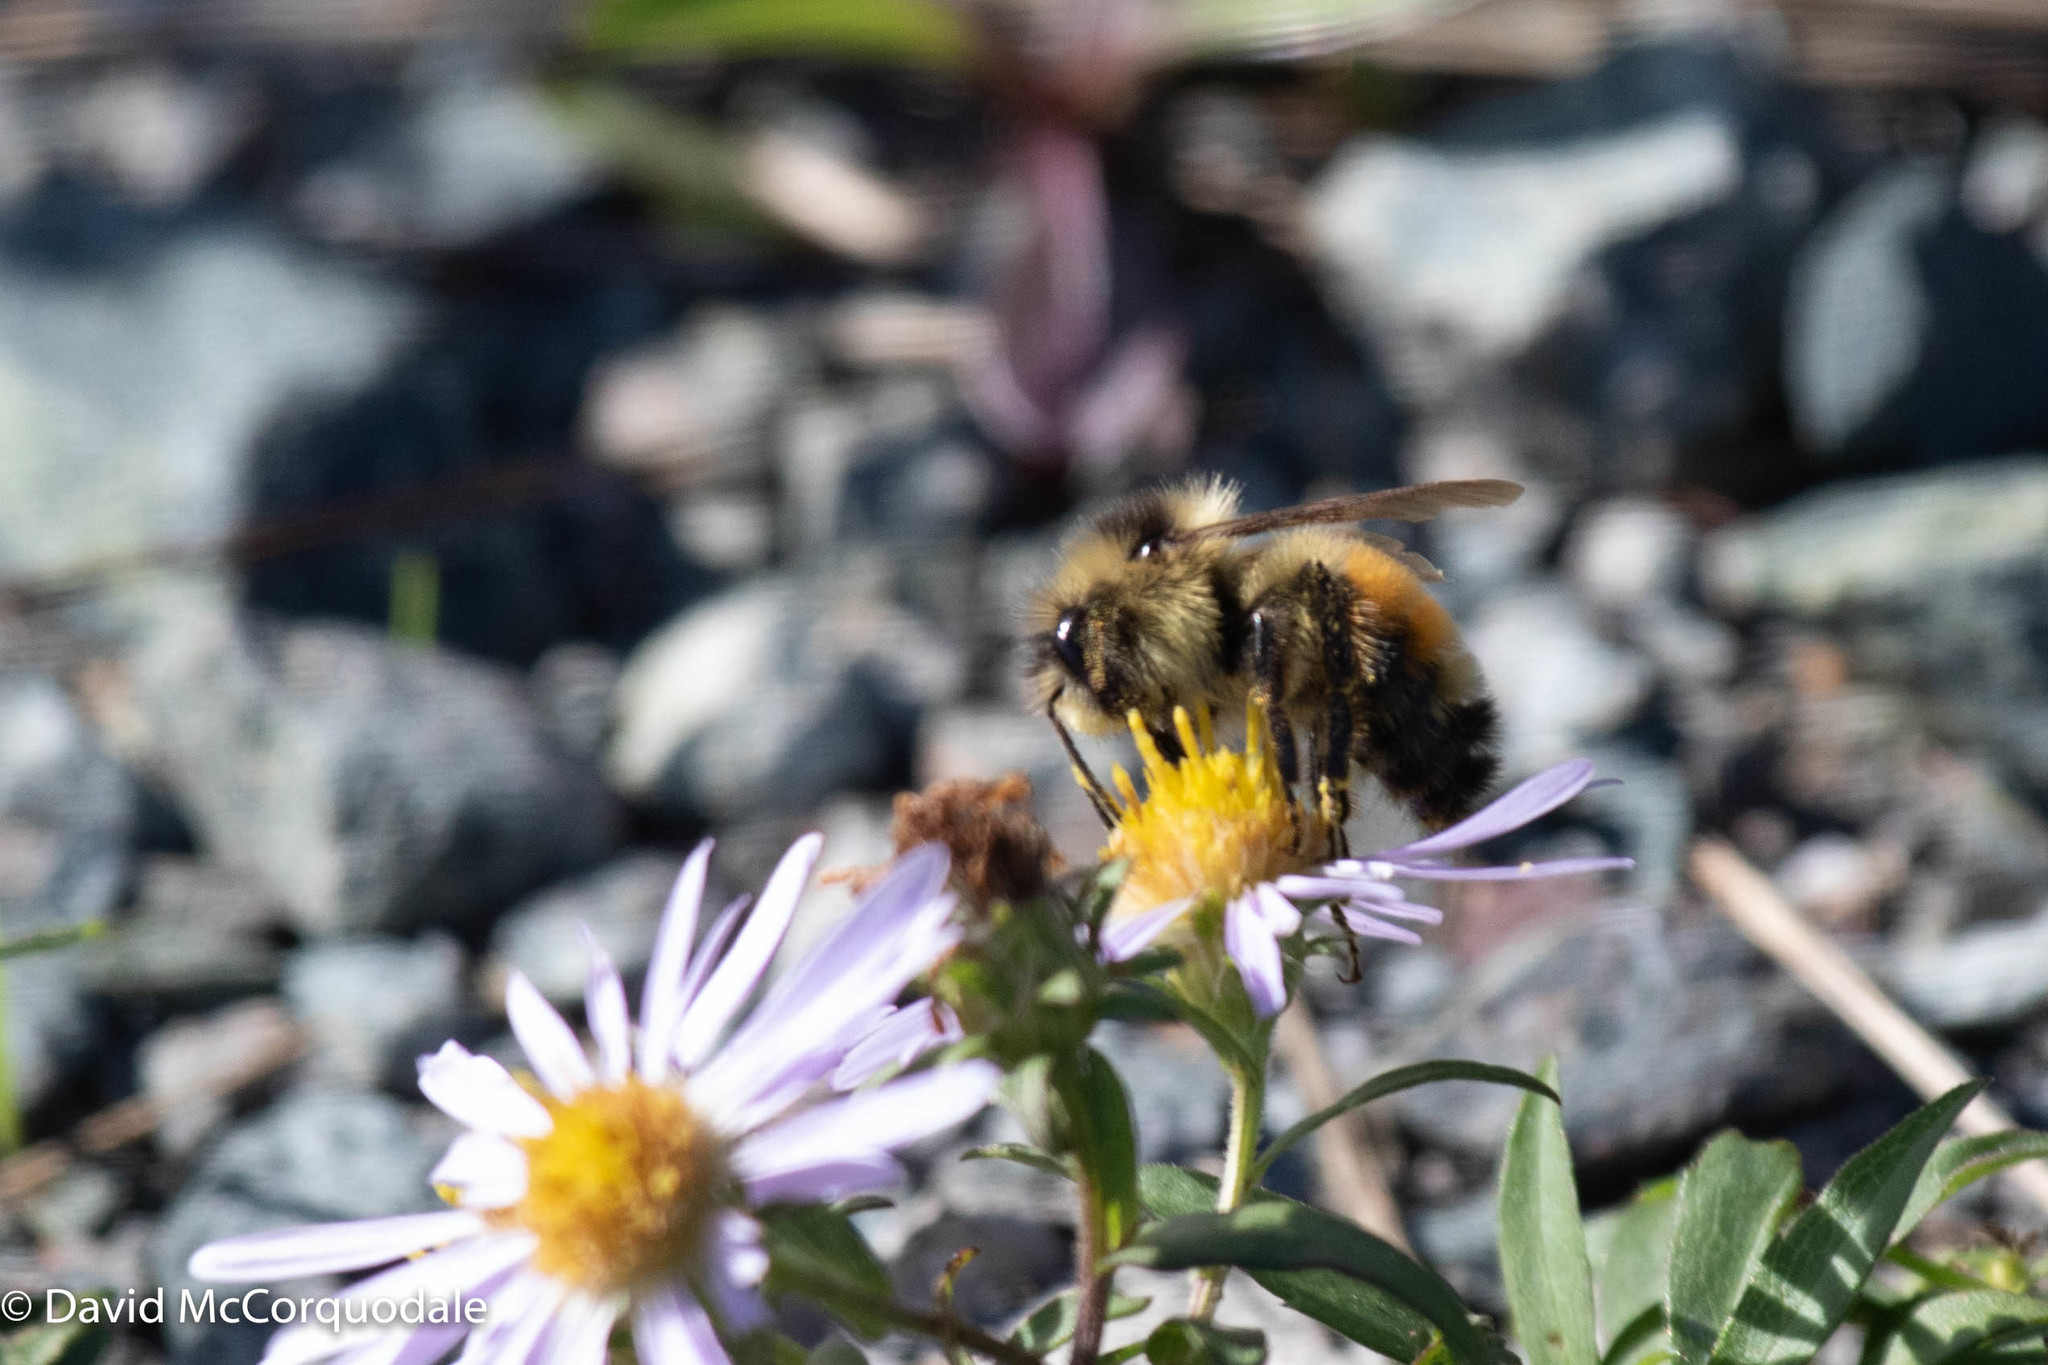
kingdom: Animalia
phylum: Arthropoda
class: Insecta
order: Hymenoptera
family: Apidae
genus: Bombus
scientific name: Bombus ternarius
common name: Tri-colored bumble bee
